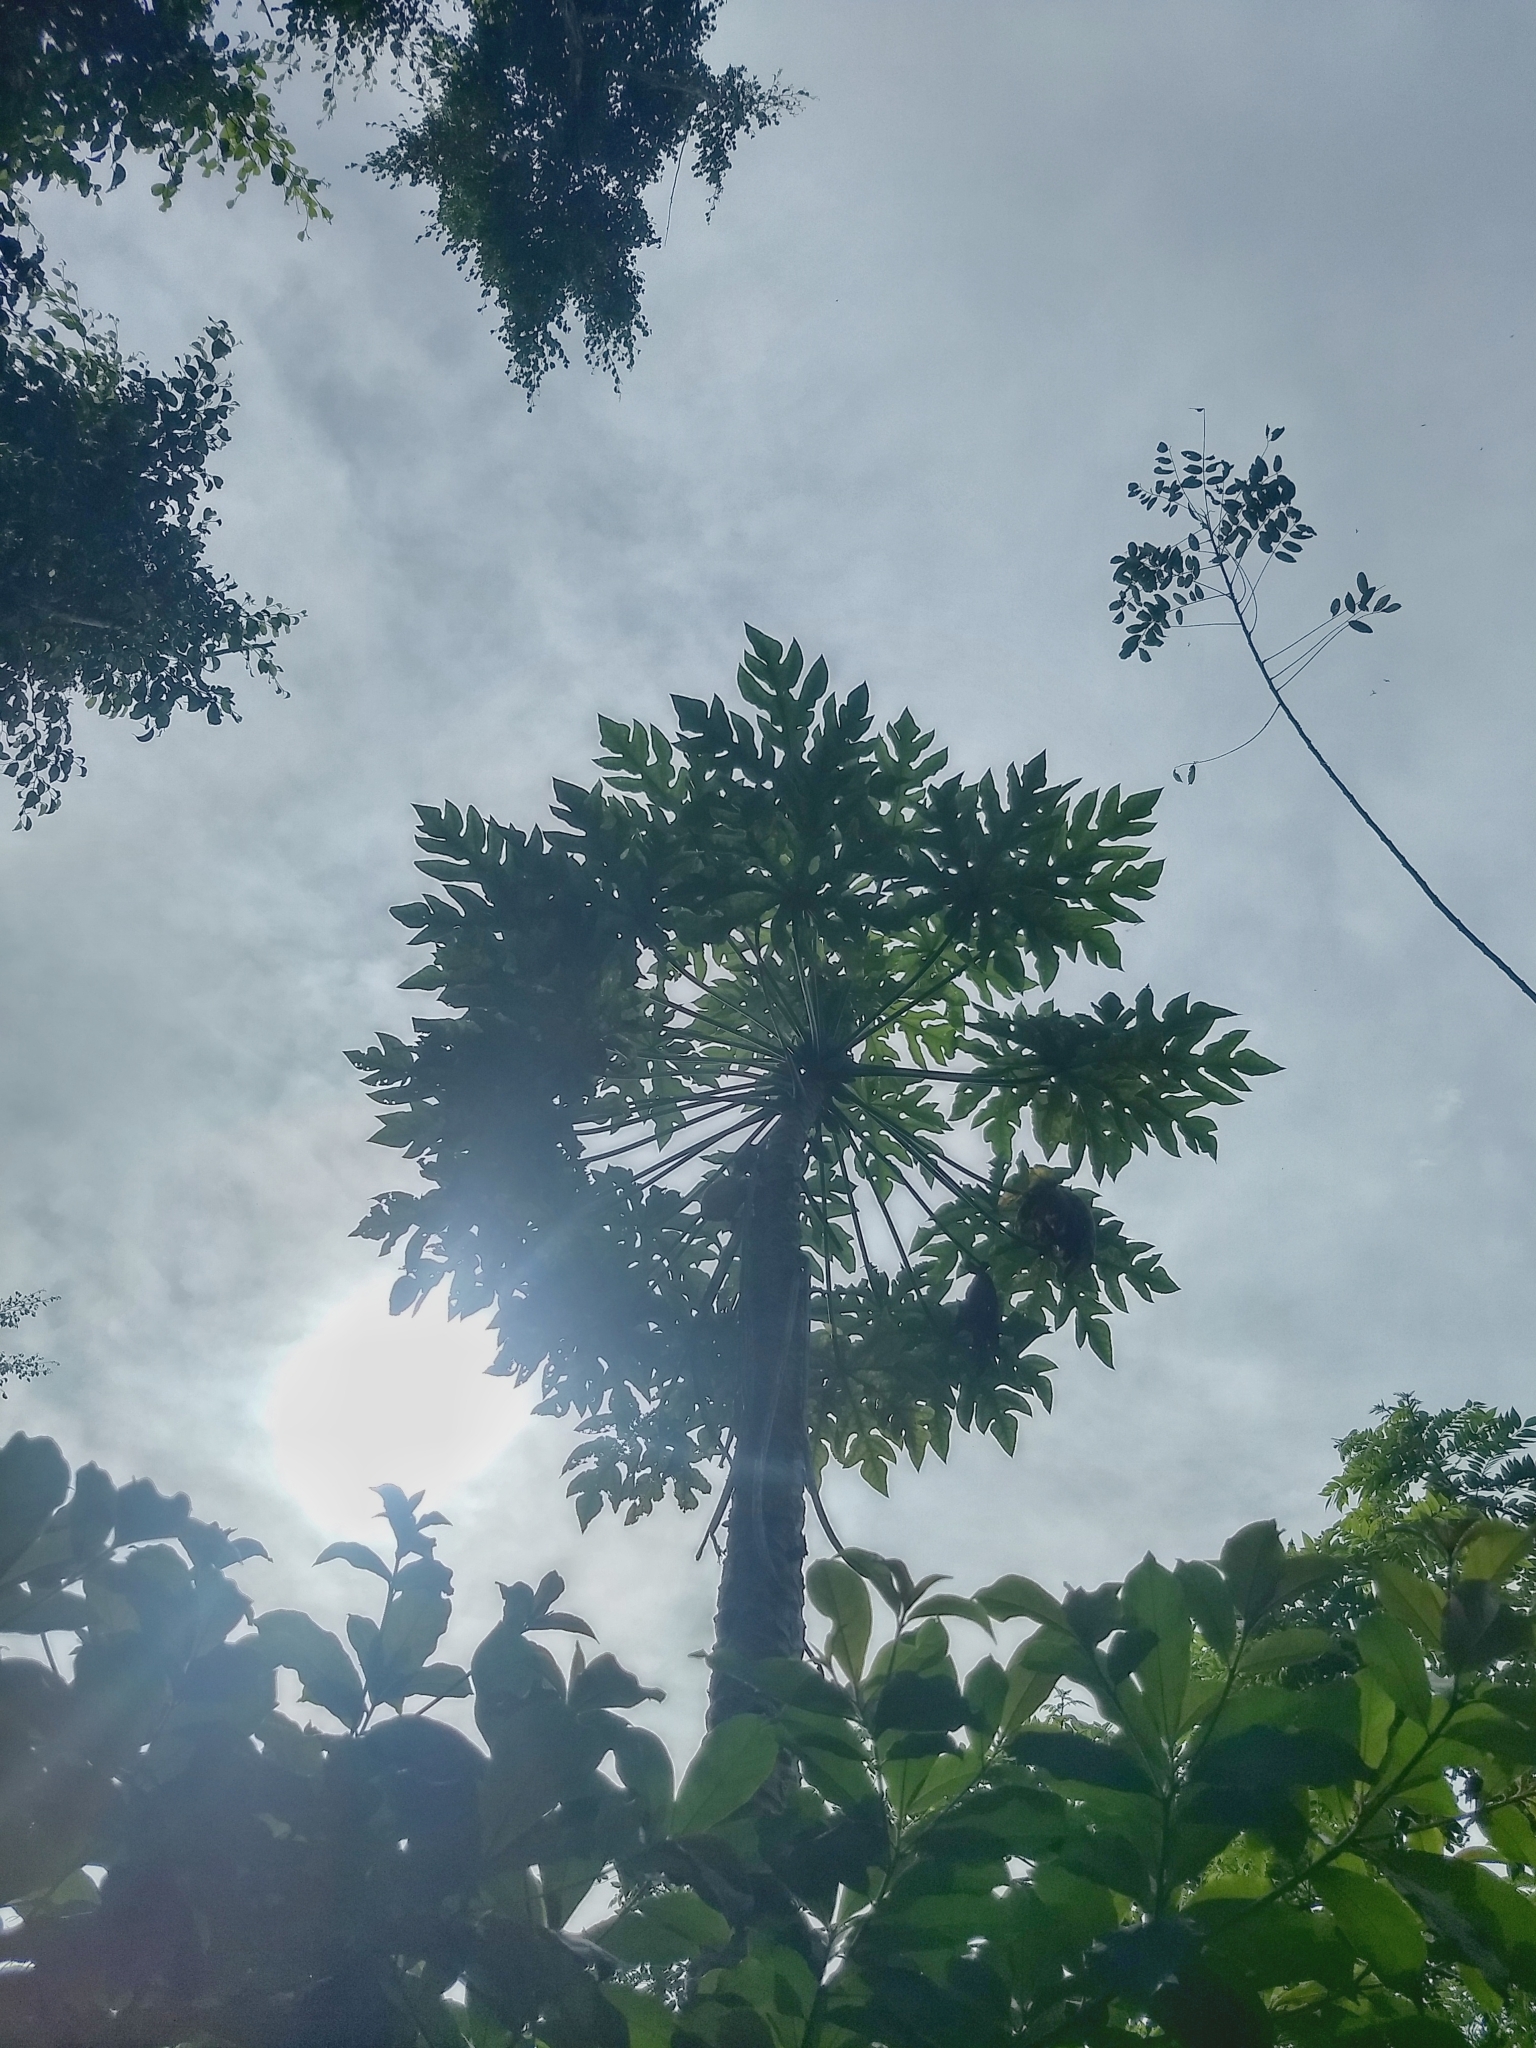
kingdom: Plantae
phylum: Tracheophyta
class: Magnoliopsida
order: Brassicales
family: Caricaceae
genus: Carica
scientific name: Carica papaya
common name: Papaya
